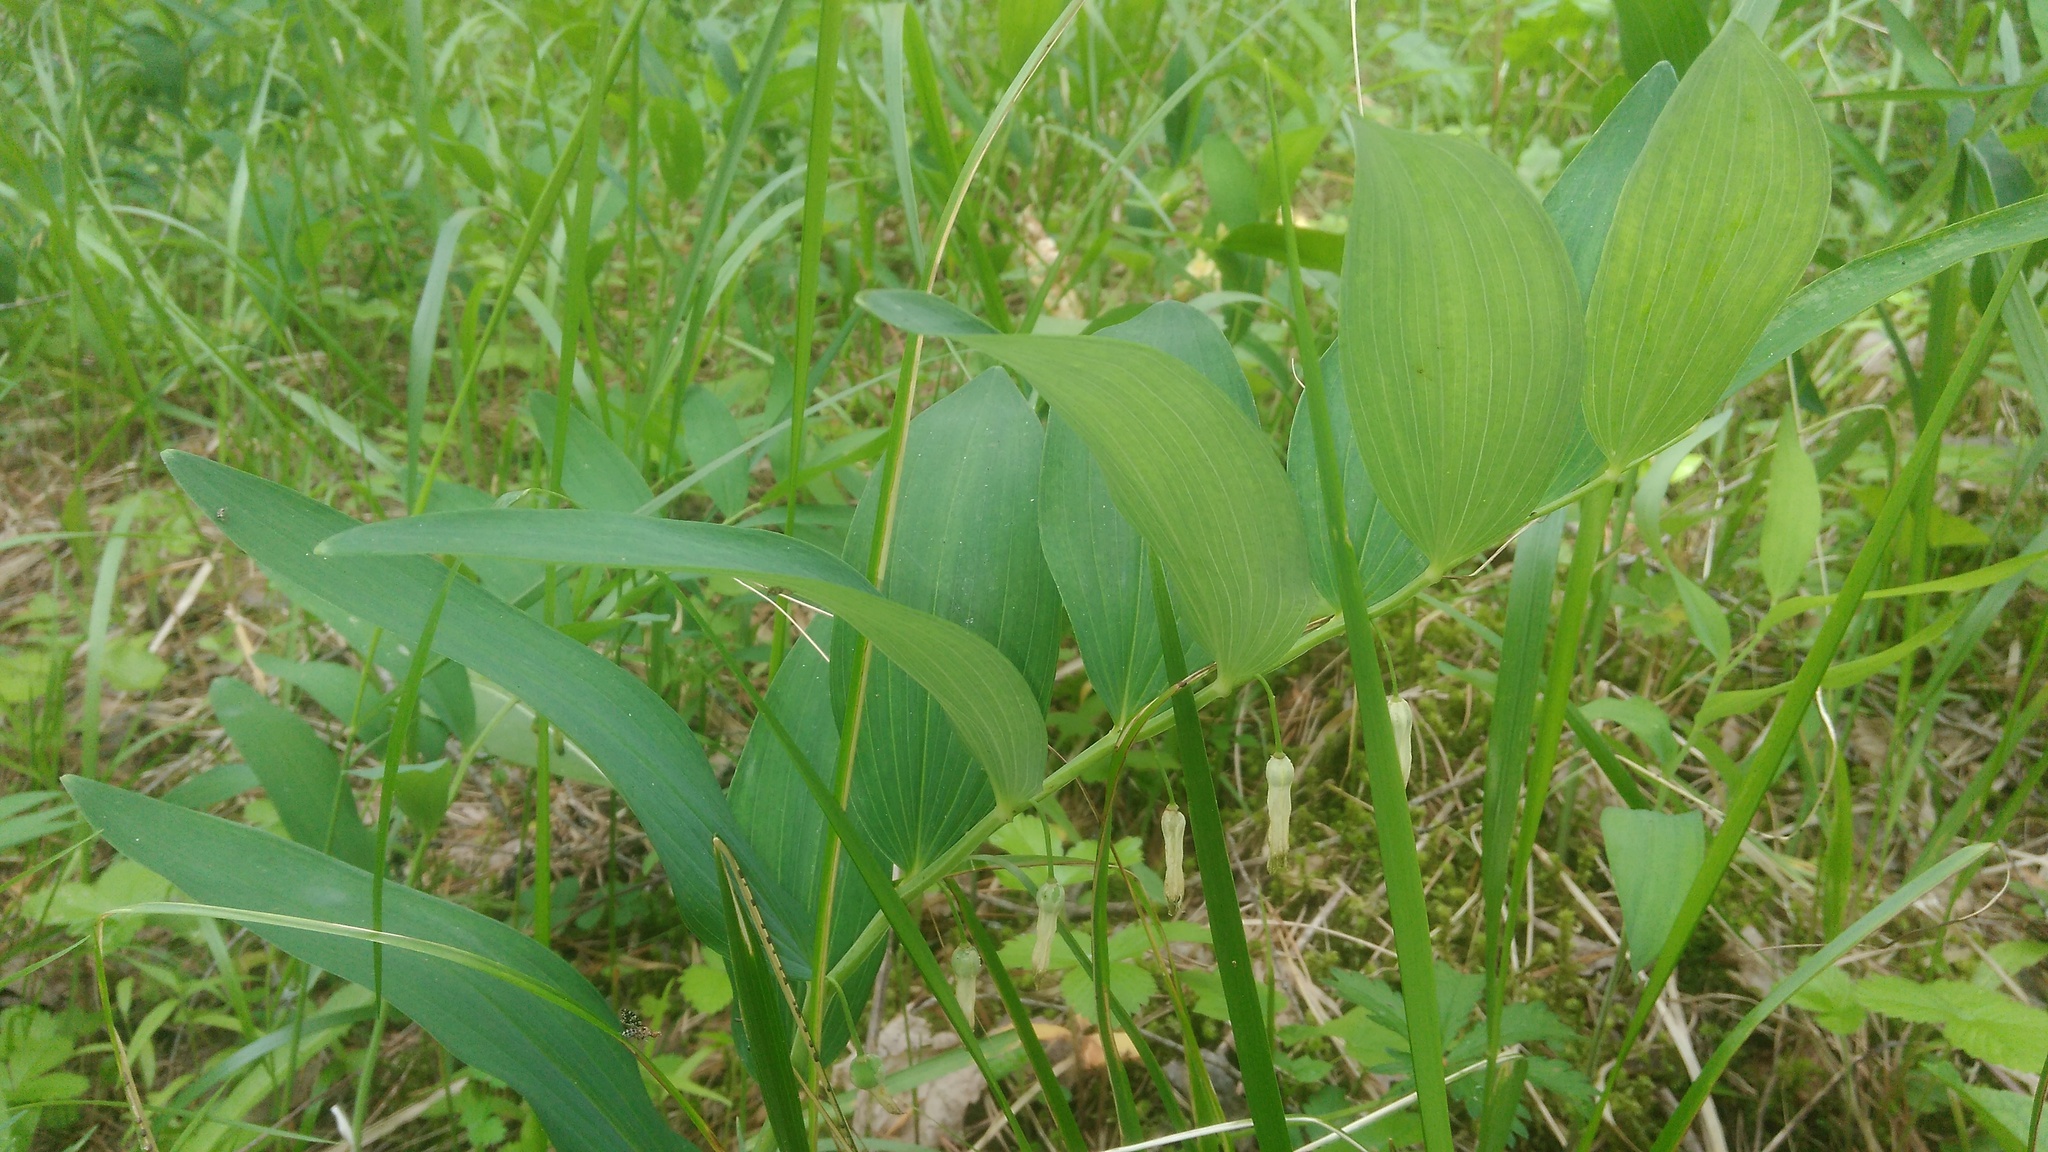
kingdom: Plantae
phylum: Tracheophyta
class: Liliopsida
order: Asparagales
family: Asparagaceae
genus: Polygonatum
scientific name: Polygonatum odoratum
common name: Angular solomon's-seal
